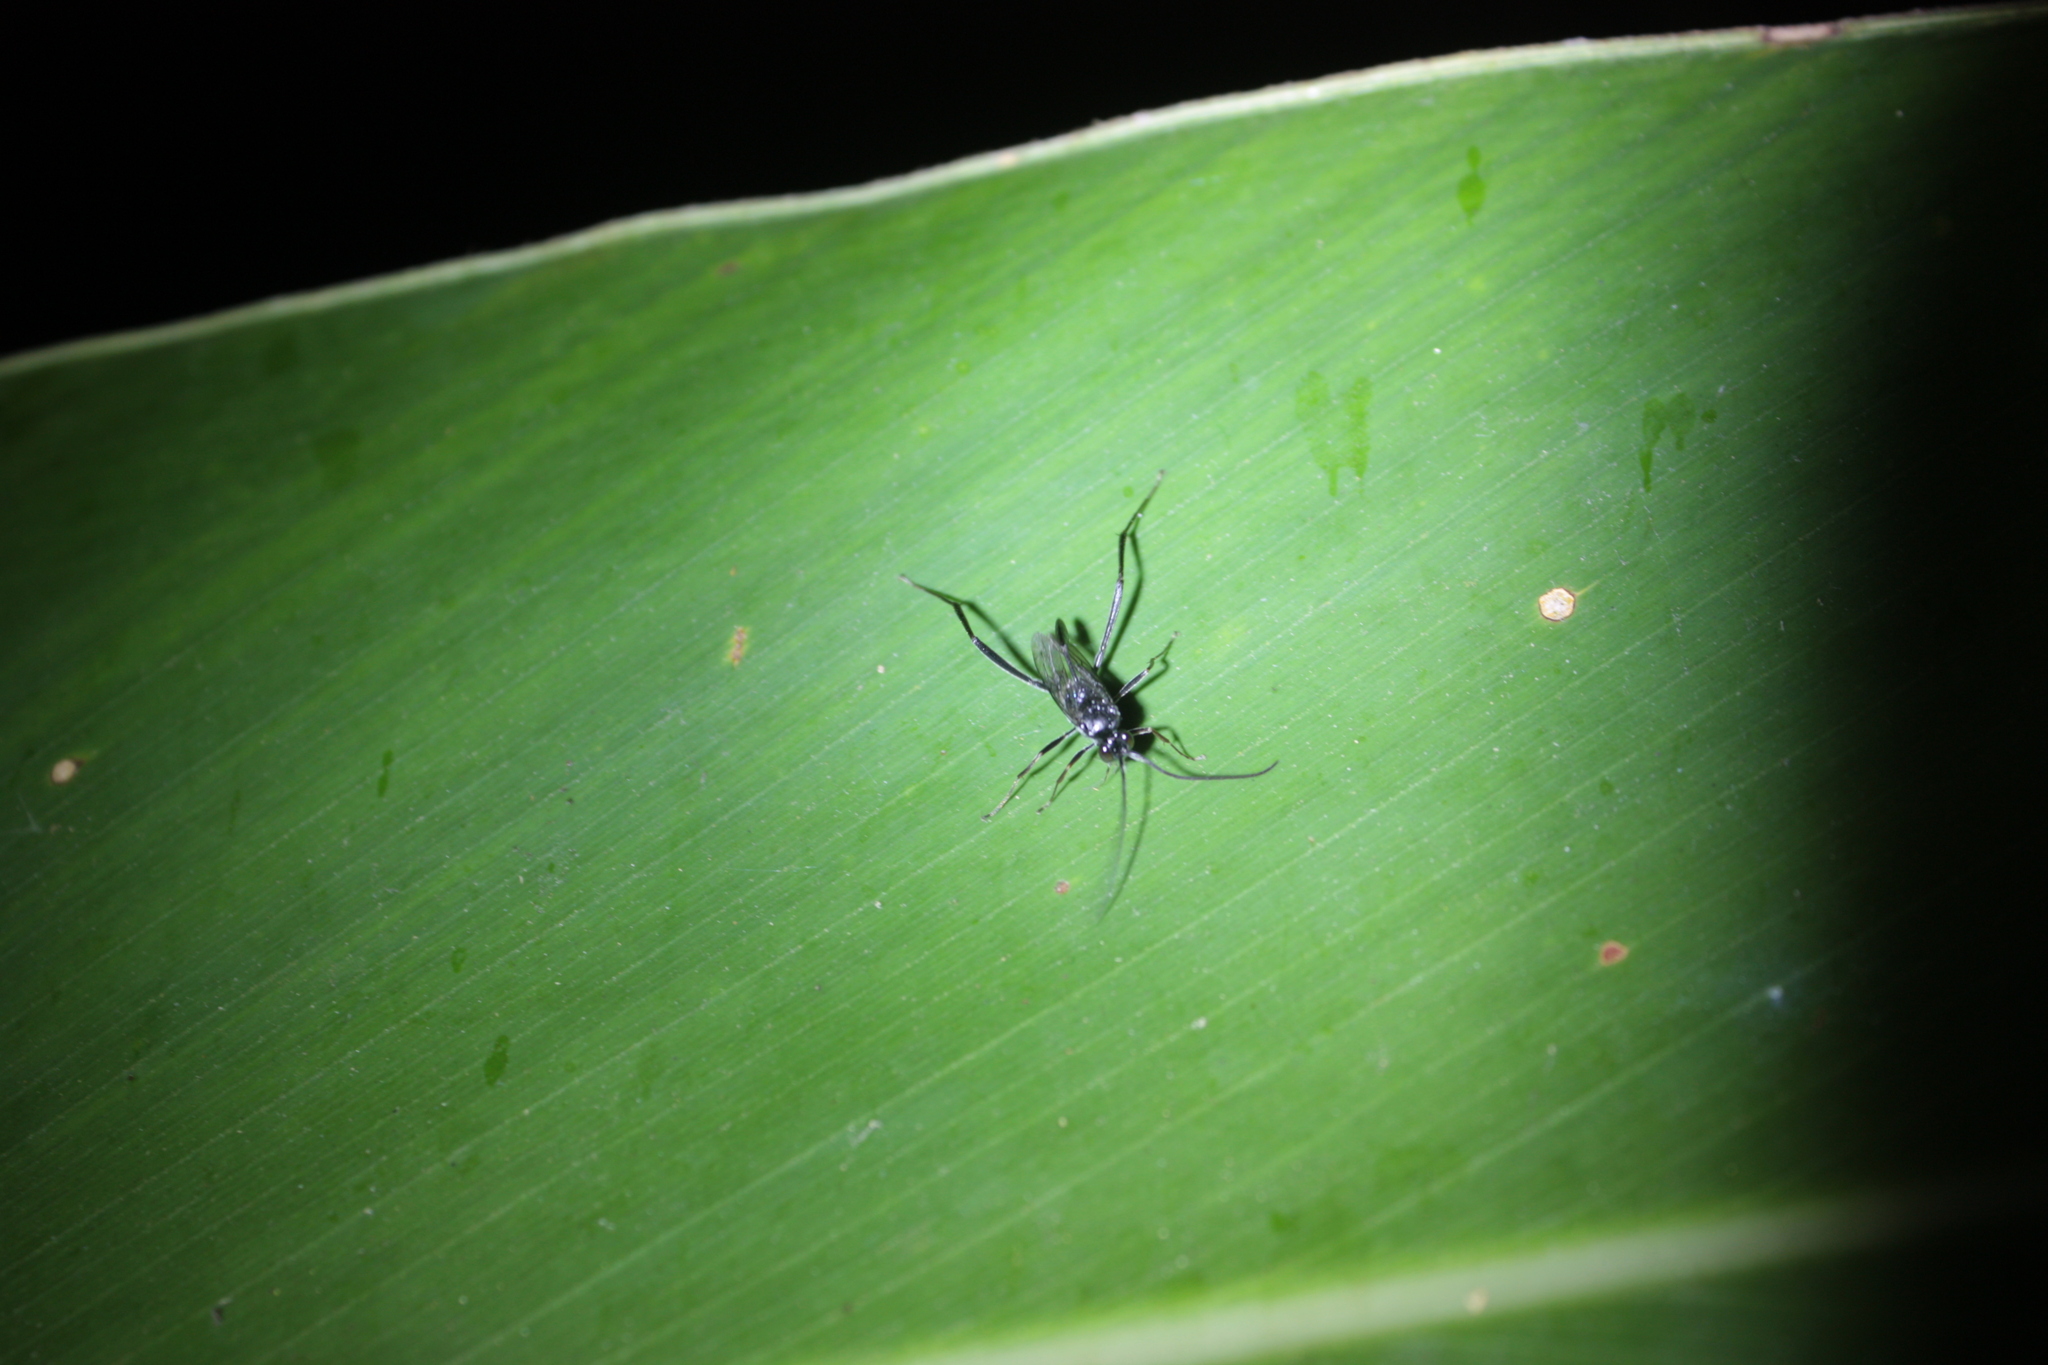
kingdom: Animalia
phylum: Arthropoda
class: Insecta
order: Hymenoptera
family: Evaniidae
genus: Evania
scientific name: Evania appendigaster
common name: Ensign wasp
